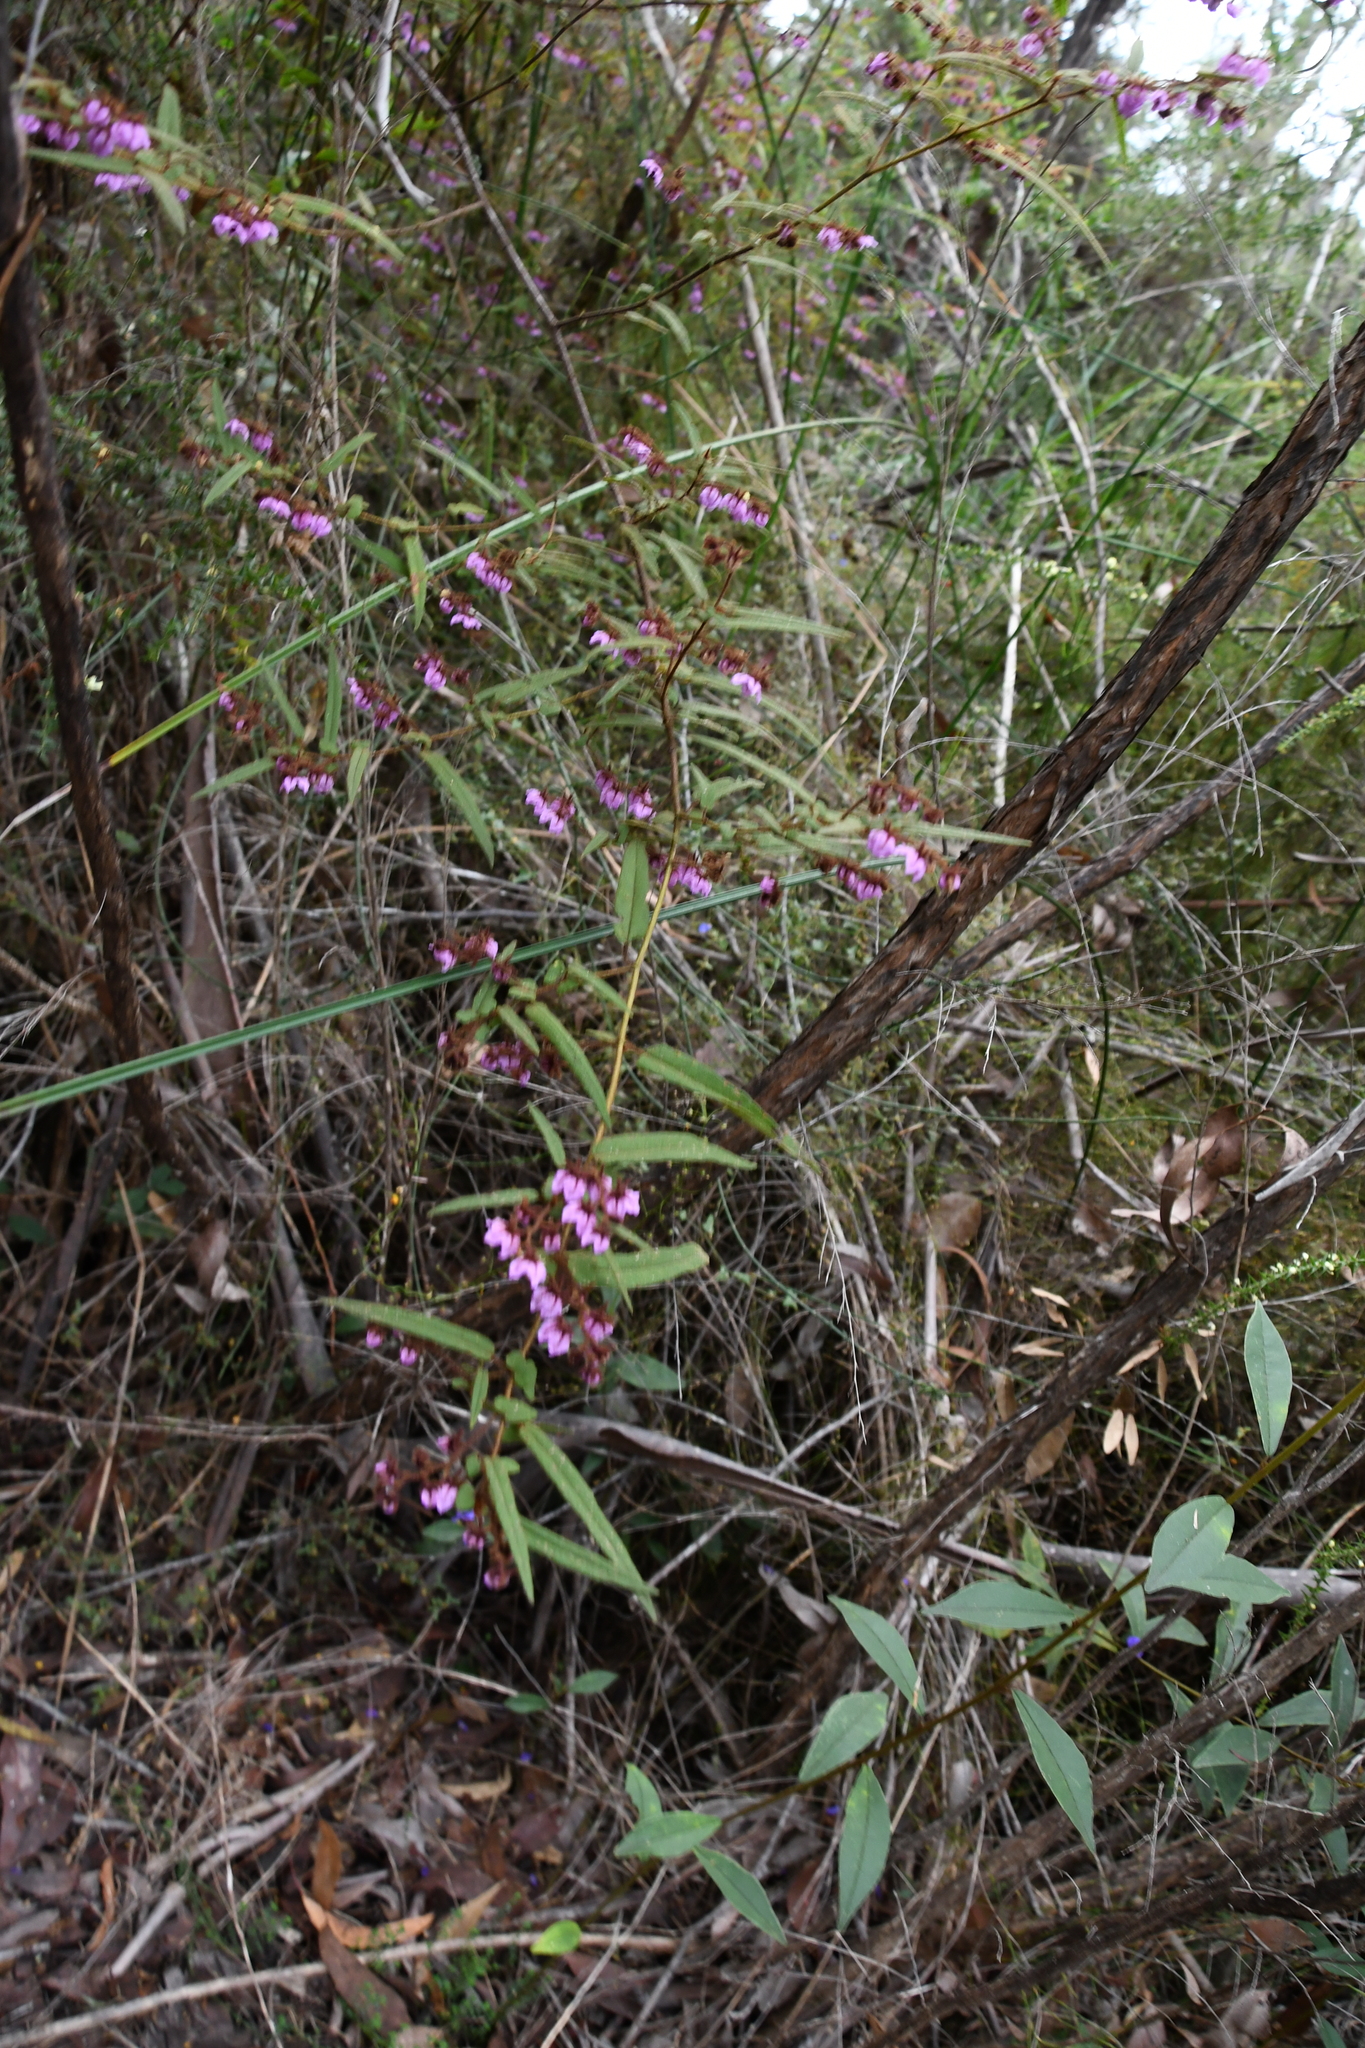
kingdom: Plantae
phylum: Tracheophyta
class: Magnoliopsida
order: Malvales
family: Malvaceae
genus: Thomasia
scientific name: Thomasia pauciflora
